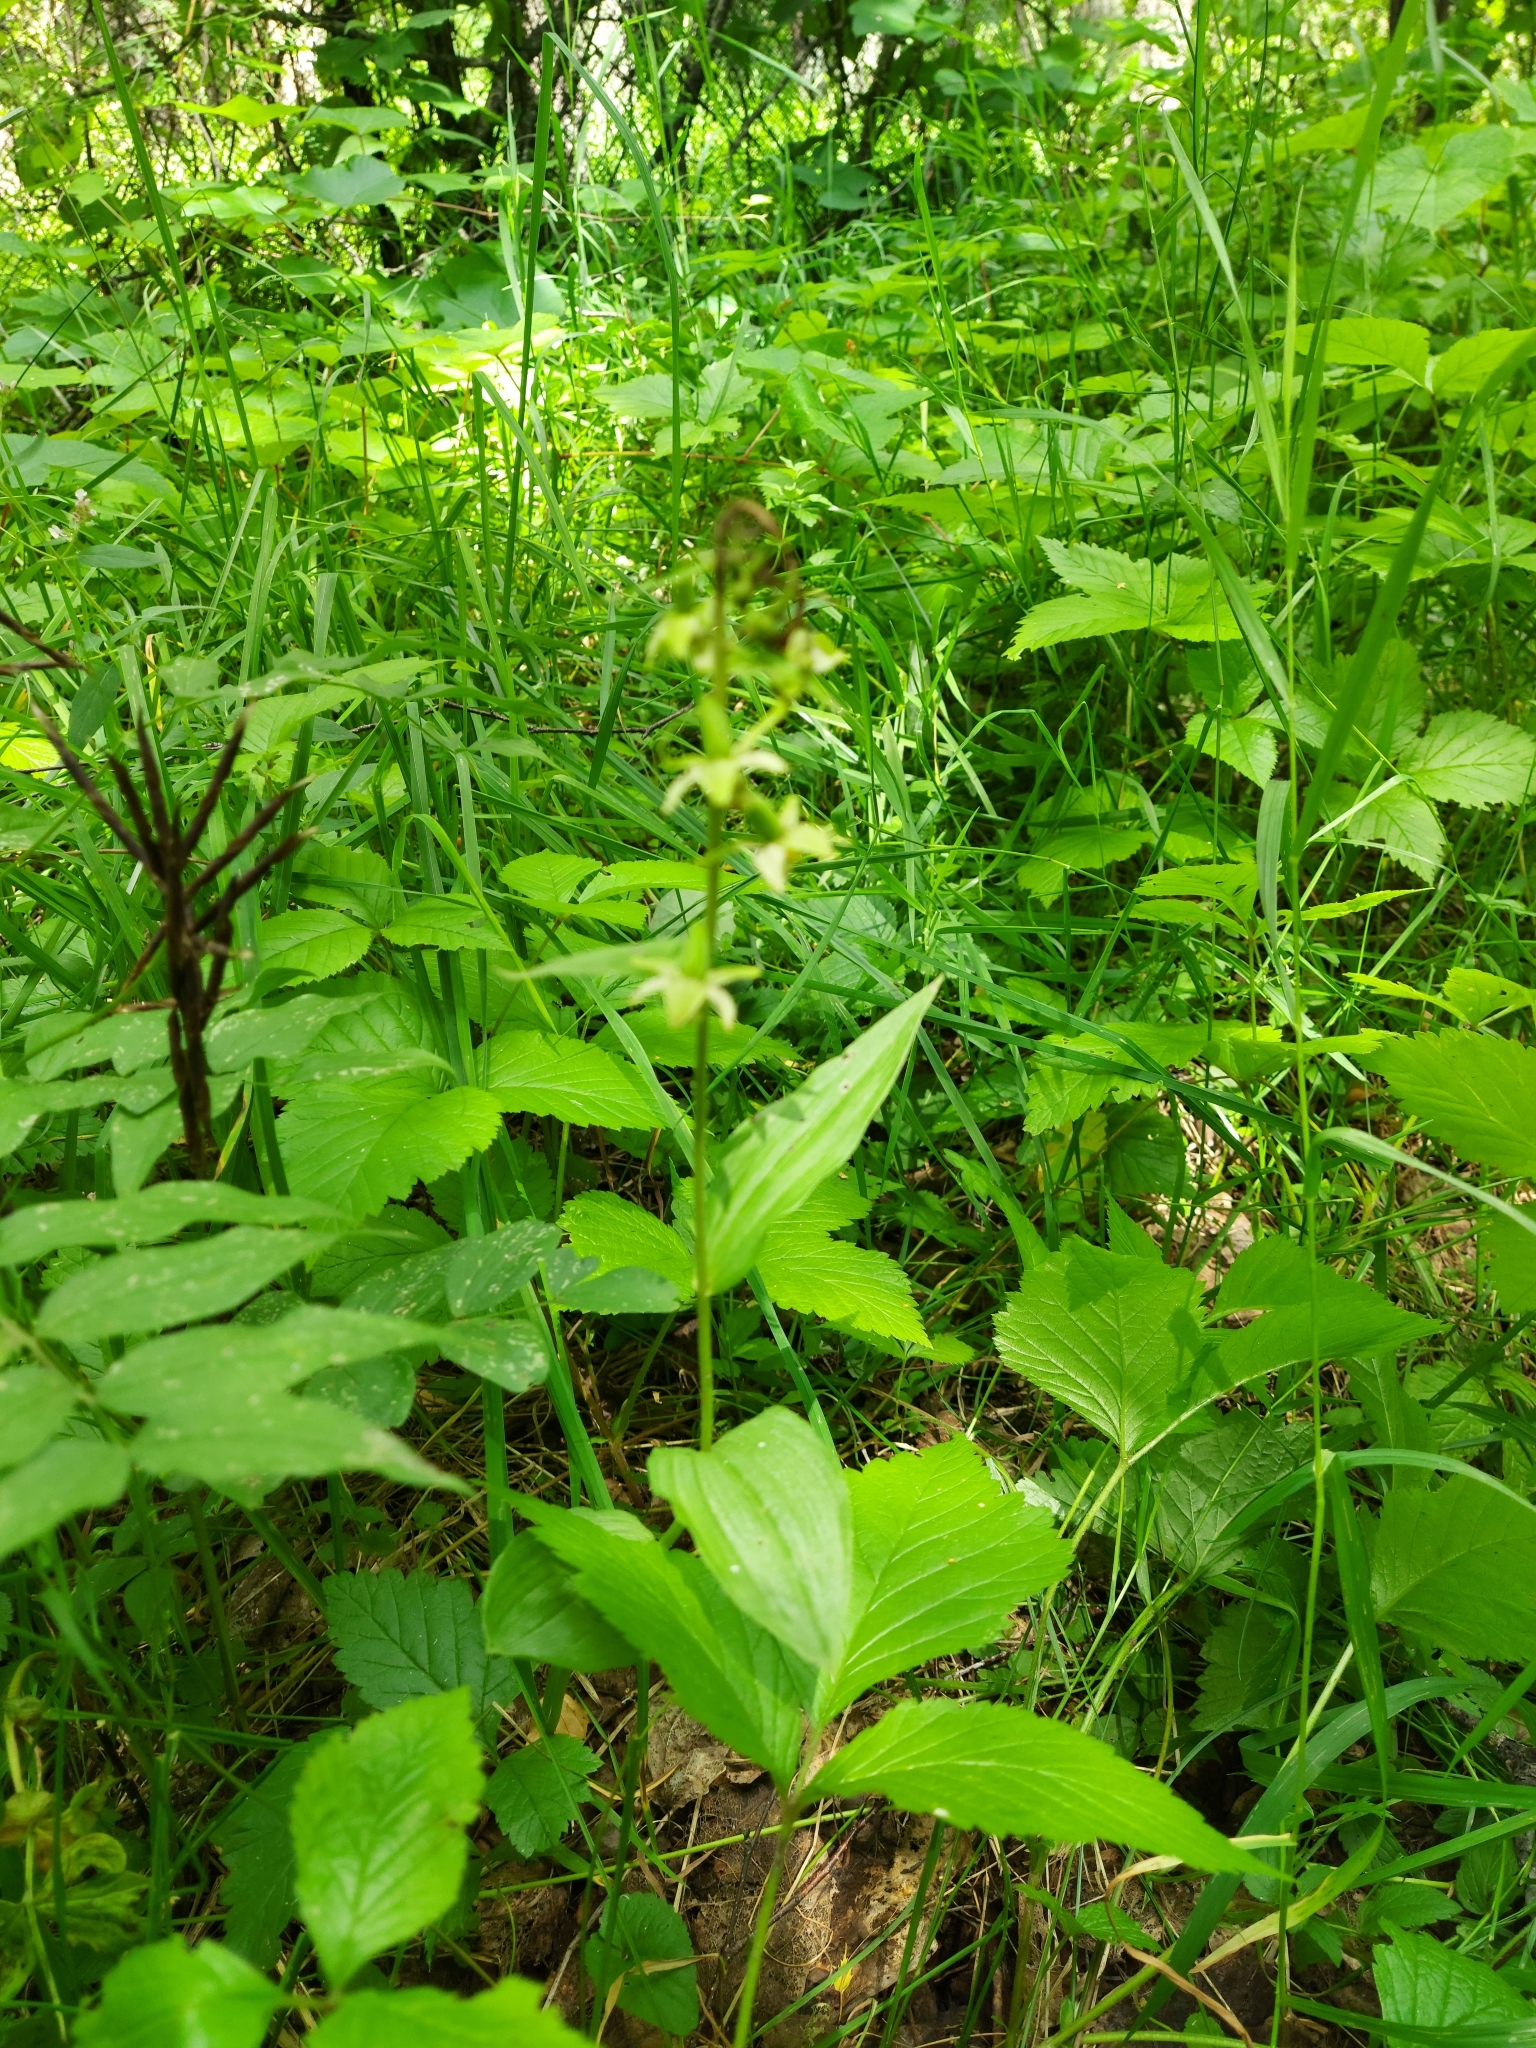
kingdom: Plantae
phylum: Tracheophyta
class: Liliopsida
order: Asparagales
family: Orchidaceae
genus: Epipactis
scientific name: Epipactis helleborine
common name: Broad-leaved helleborine
